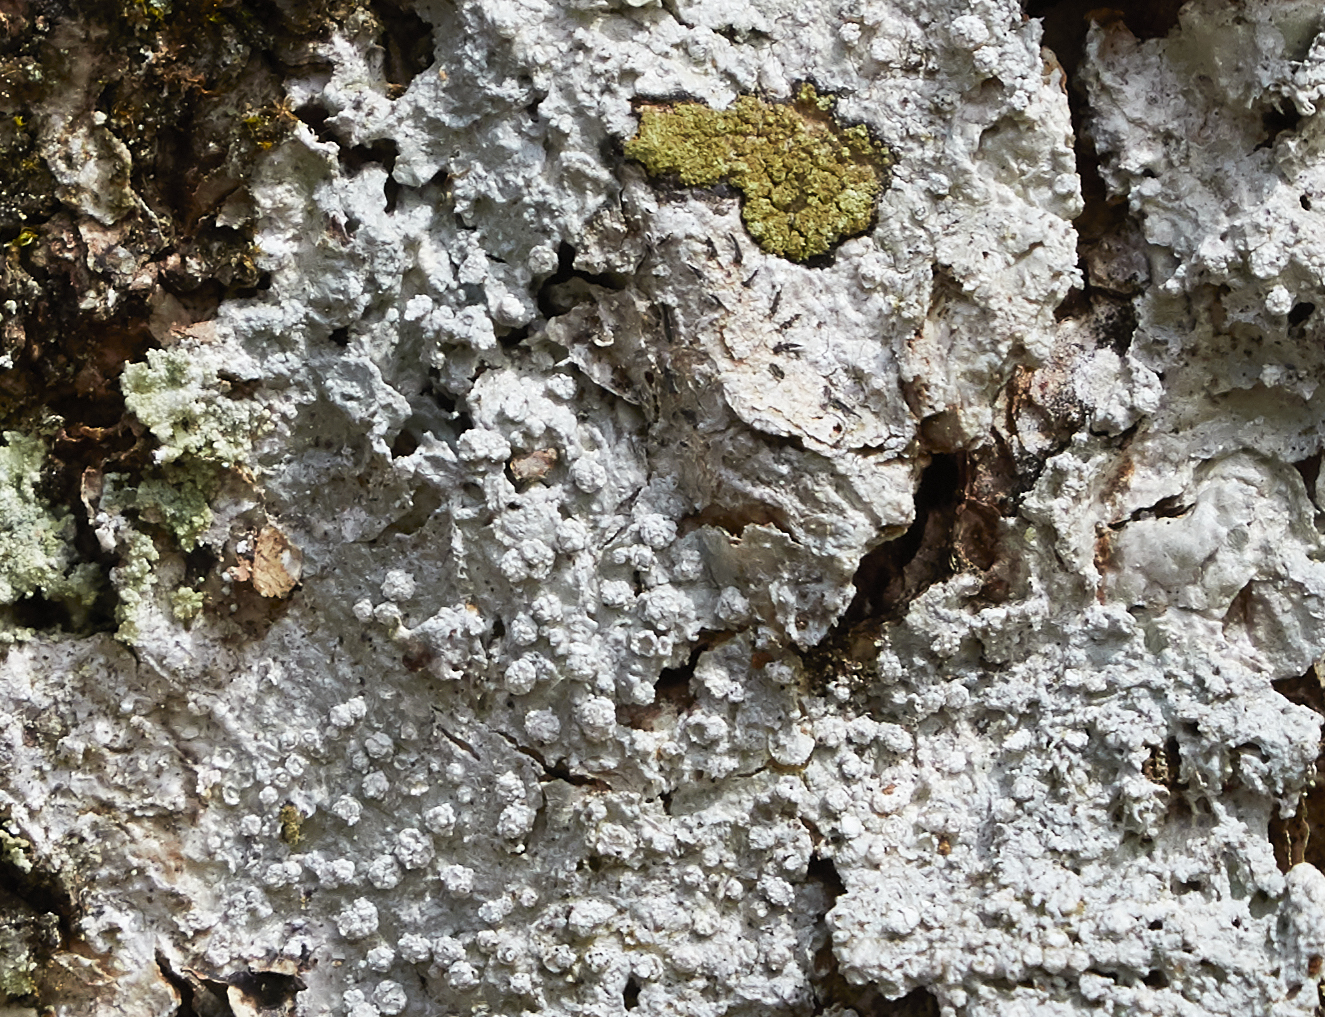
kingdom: Fungi
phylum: Ascomycota
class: Lecanoromycetes
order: Pertusariales
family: Pertusariaceae
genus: Lepra
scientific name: Lepra amara
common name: Bitter wart lichen
